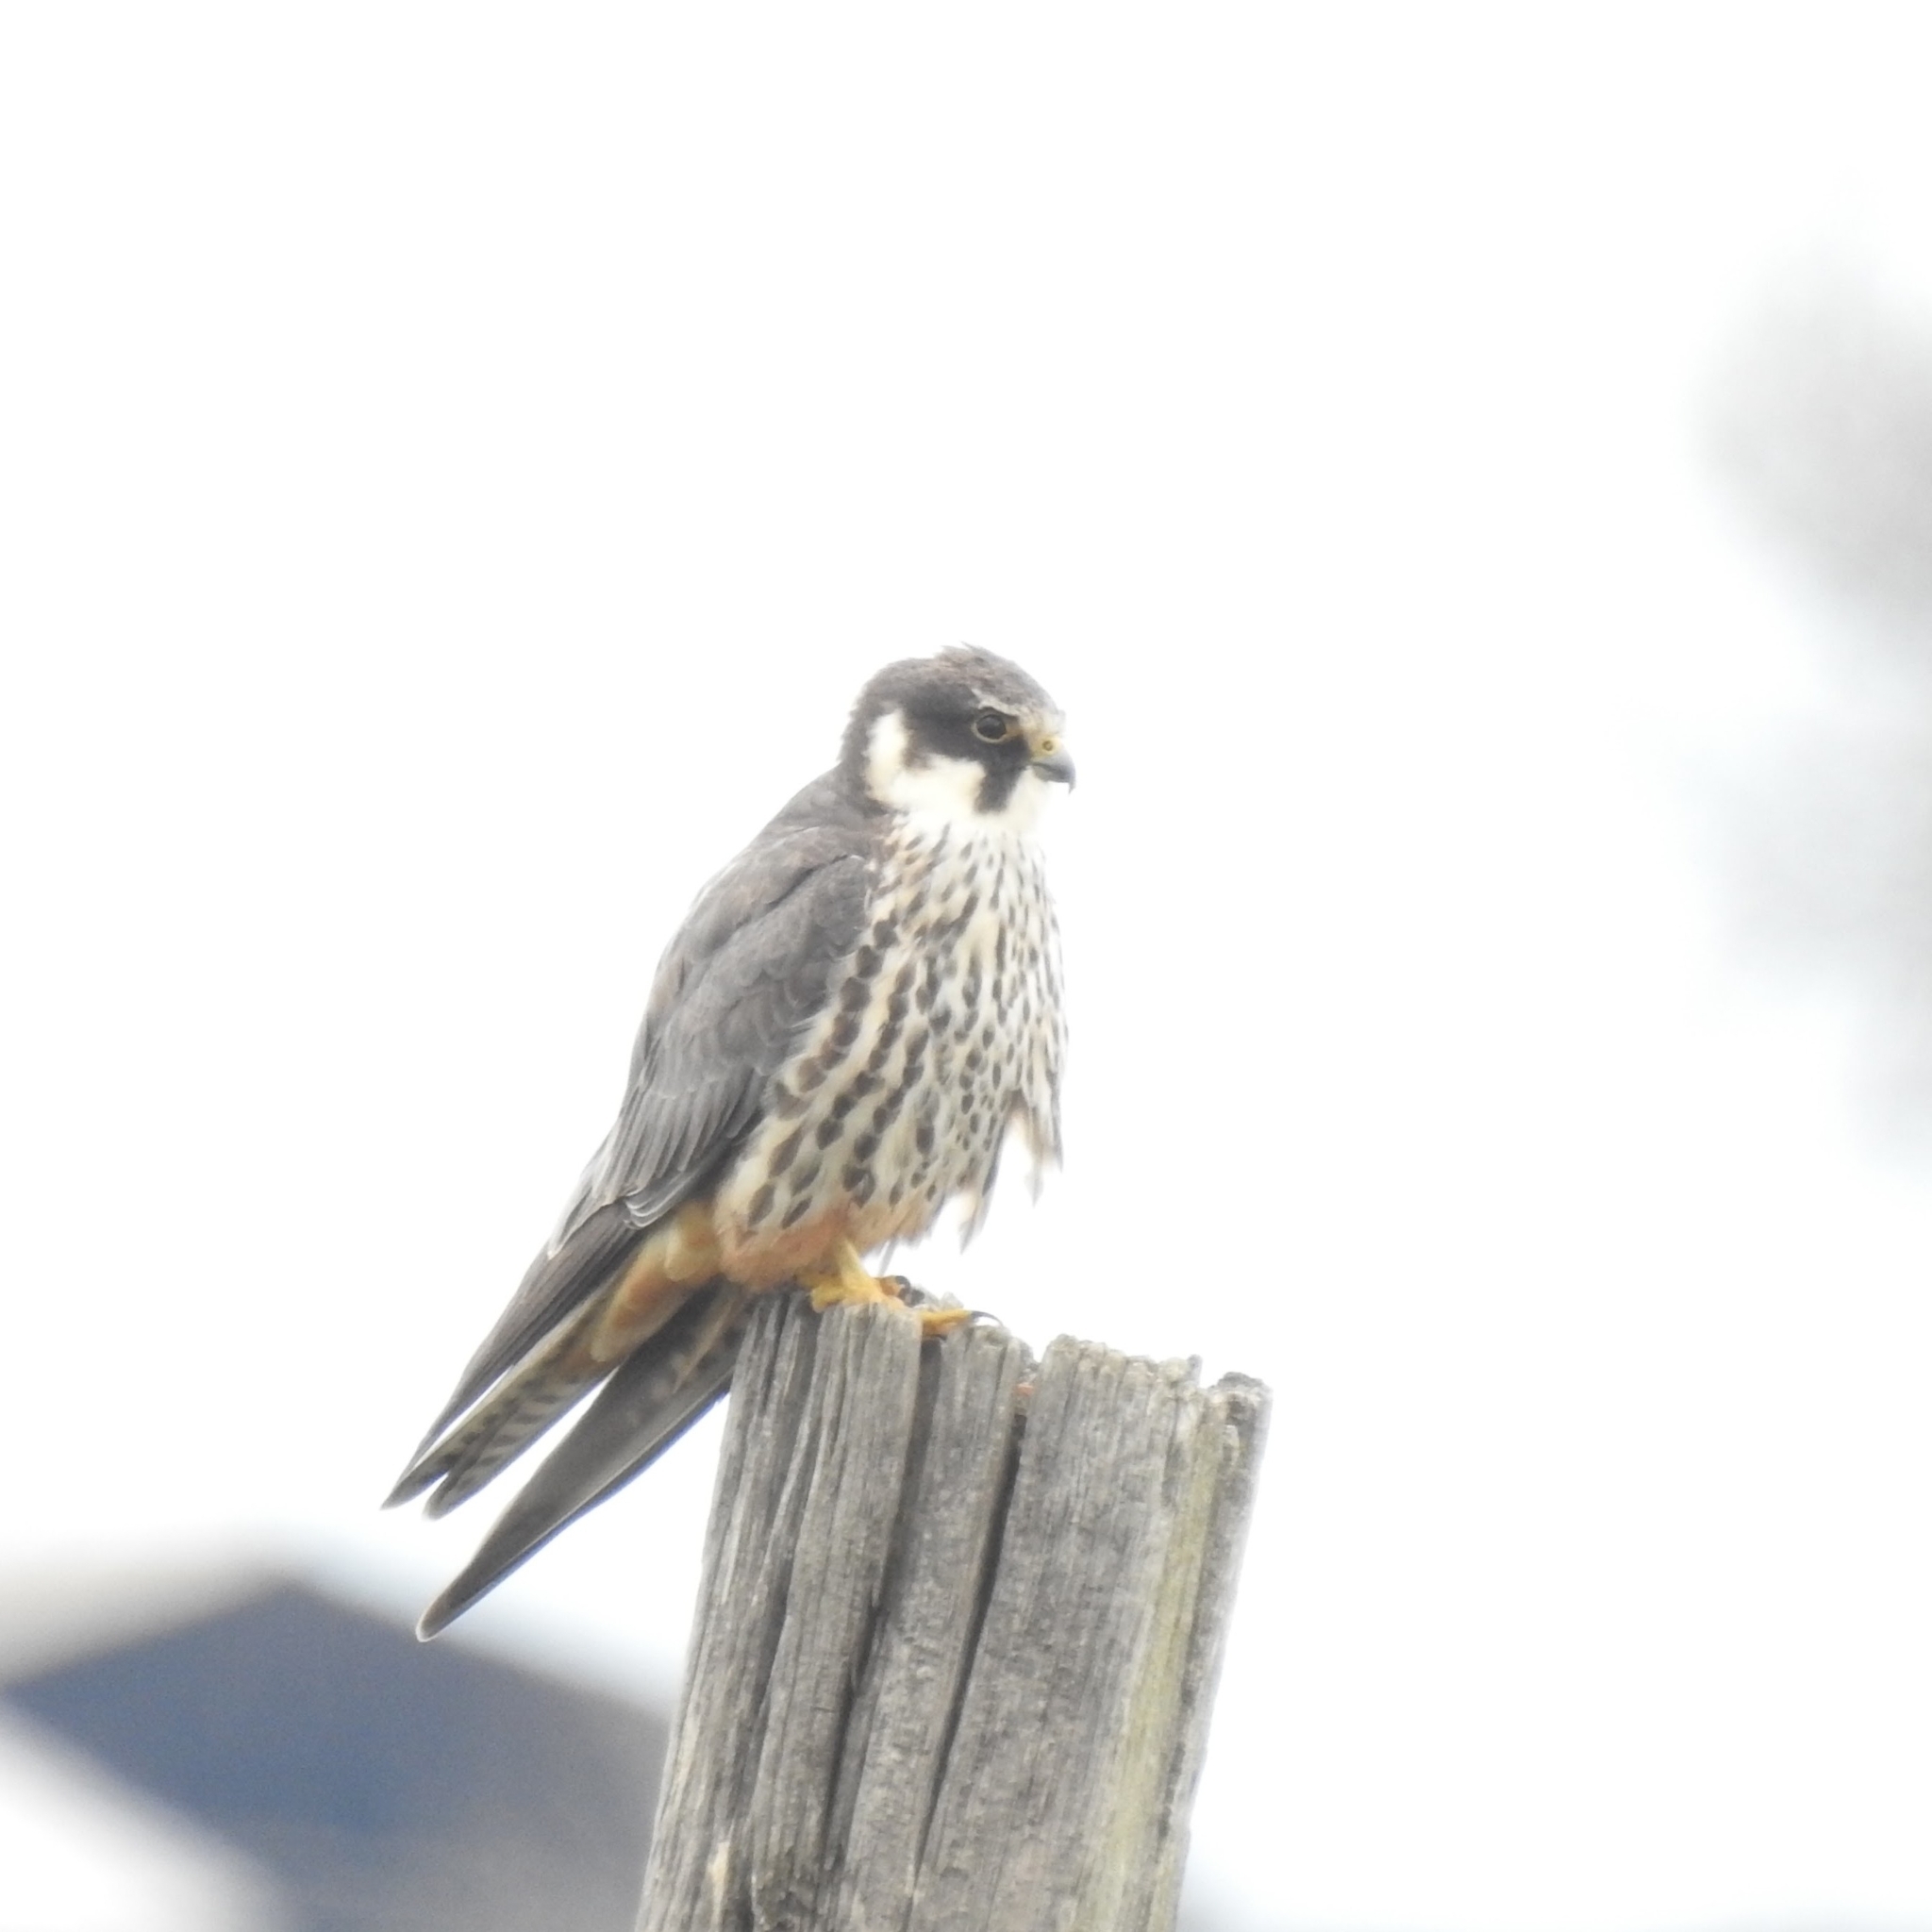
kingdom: Animalia
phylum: Chordata
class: Aves
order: Falconiformes
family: Falconidae
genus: Falco
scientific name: Falco subbuteo
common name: Eurasian hobby
